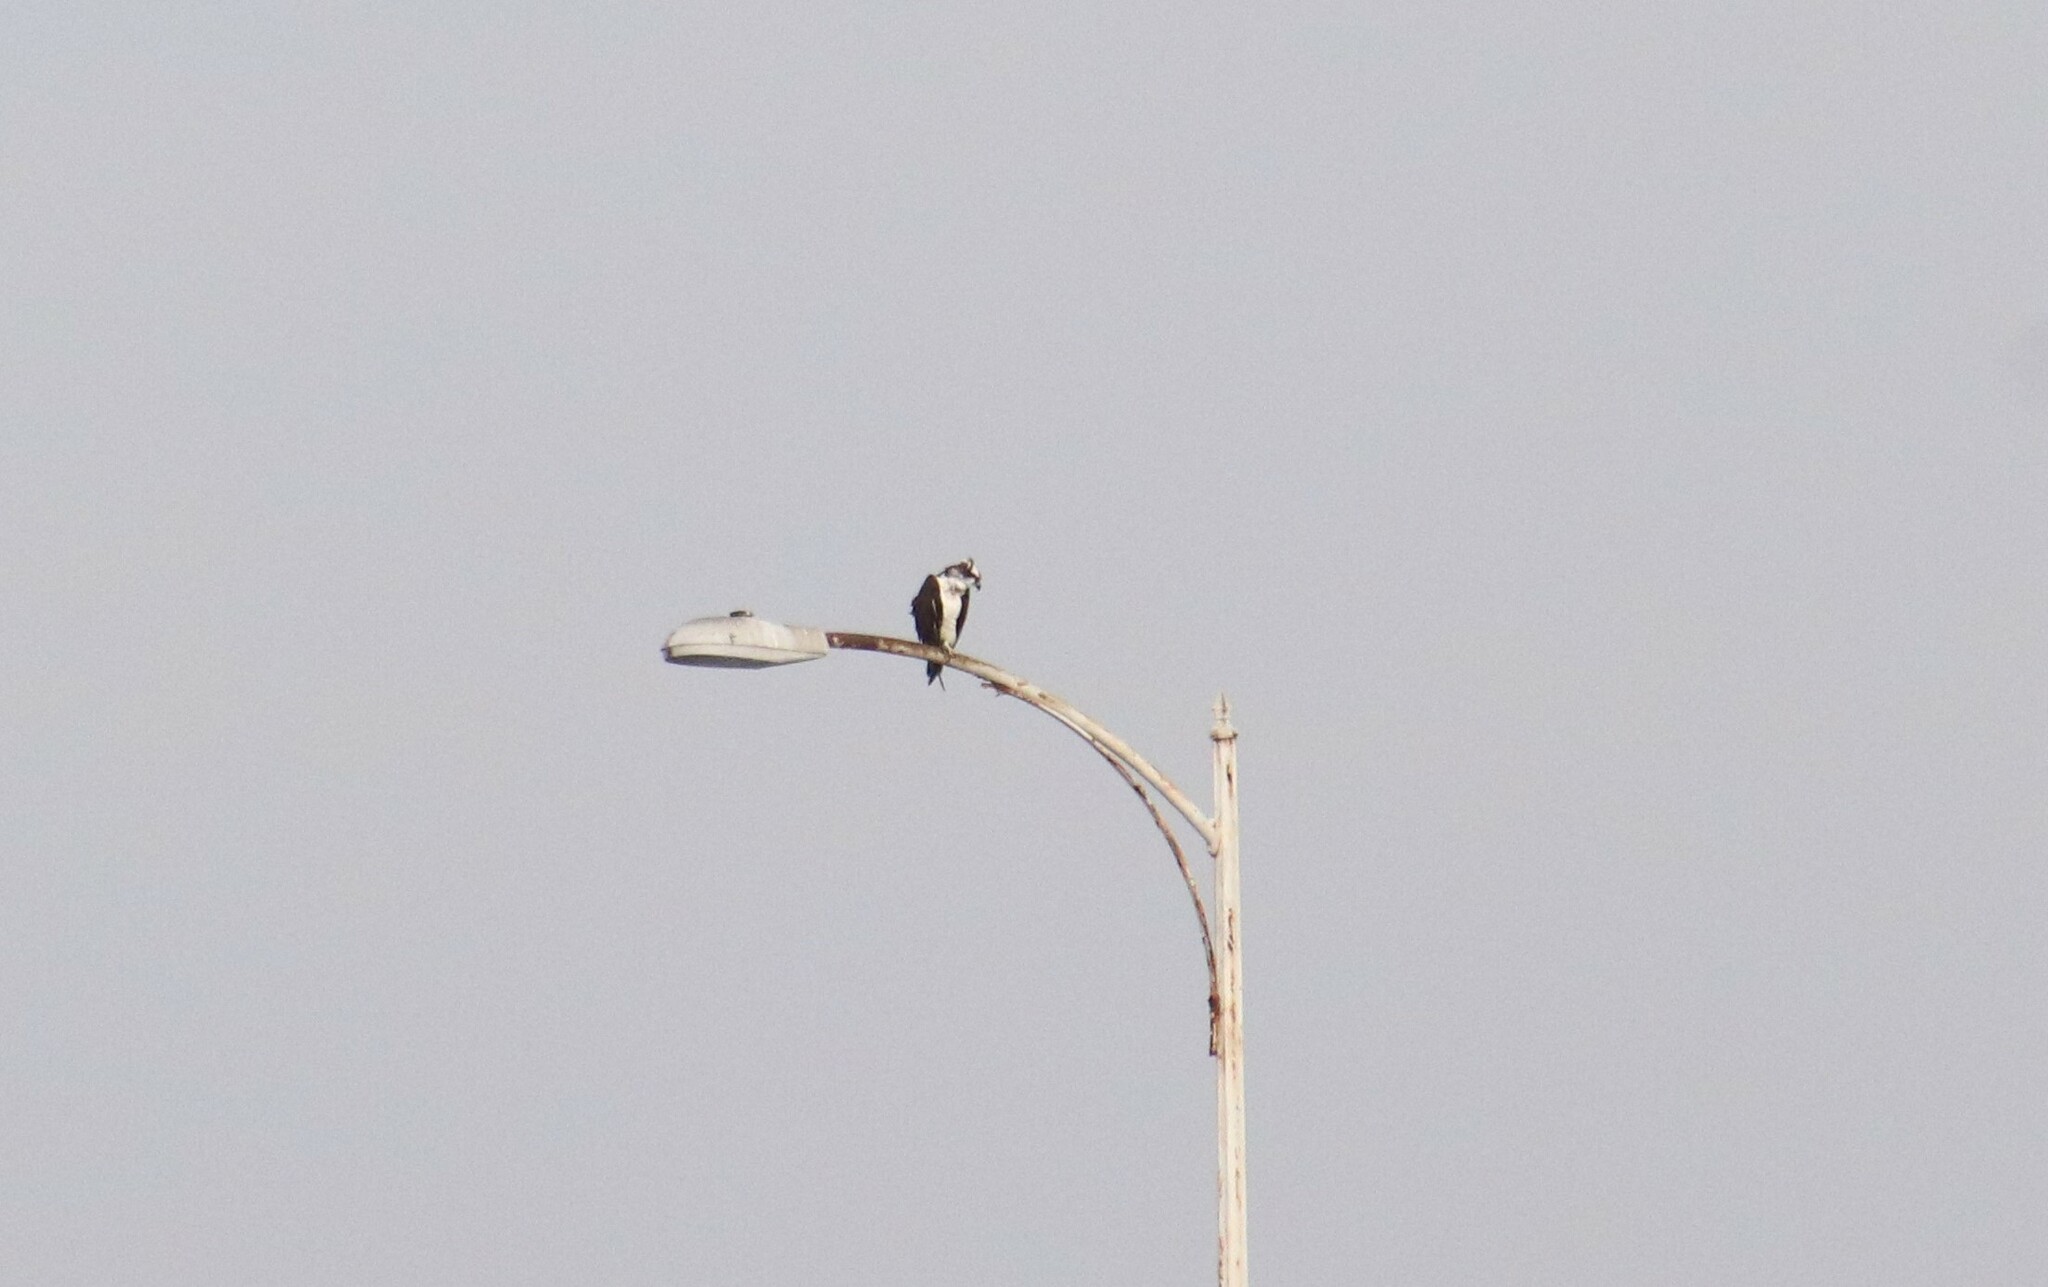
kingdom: Animalia
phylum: Chordata
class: Aves
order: Accipitriformes
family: Pandionidae
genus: Pandion
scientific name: Pandion haliaetus
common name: Osprey
